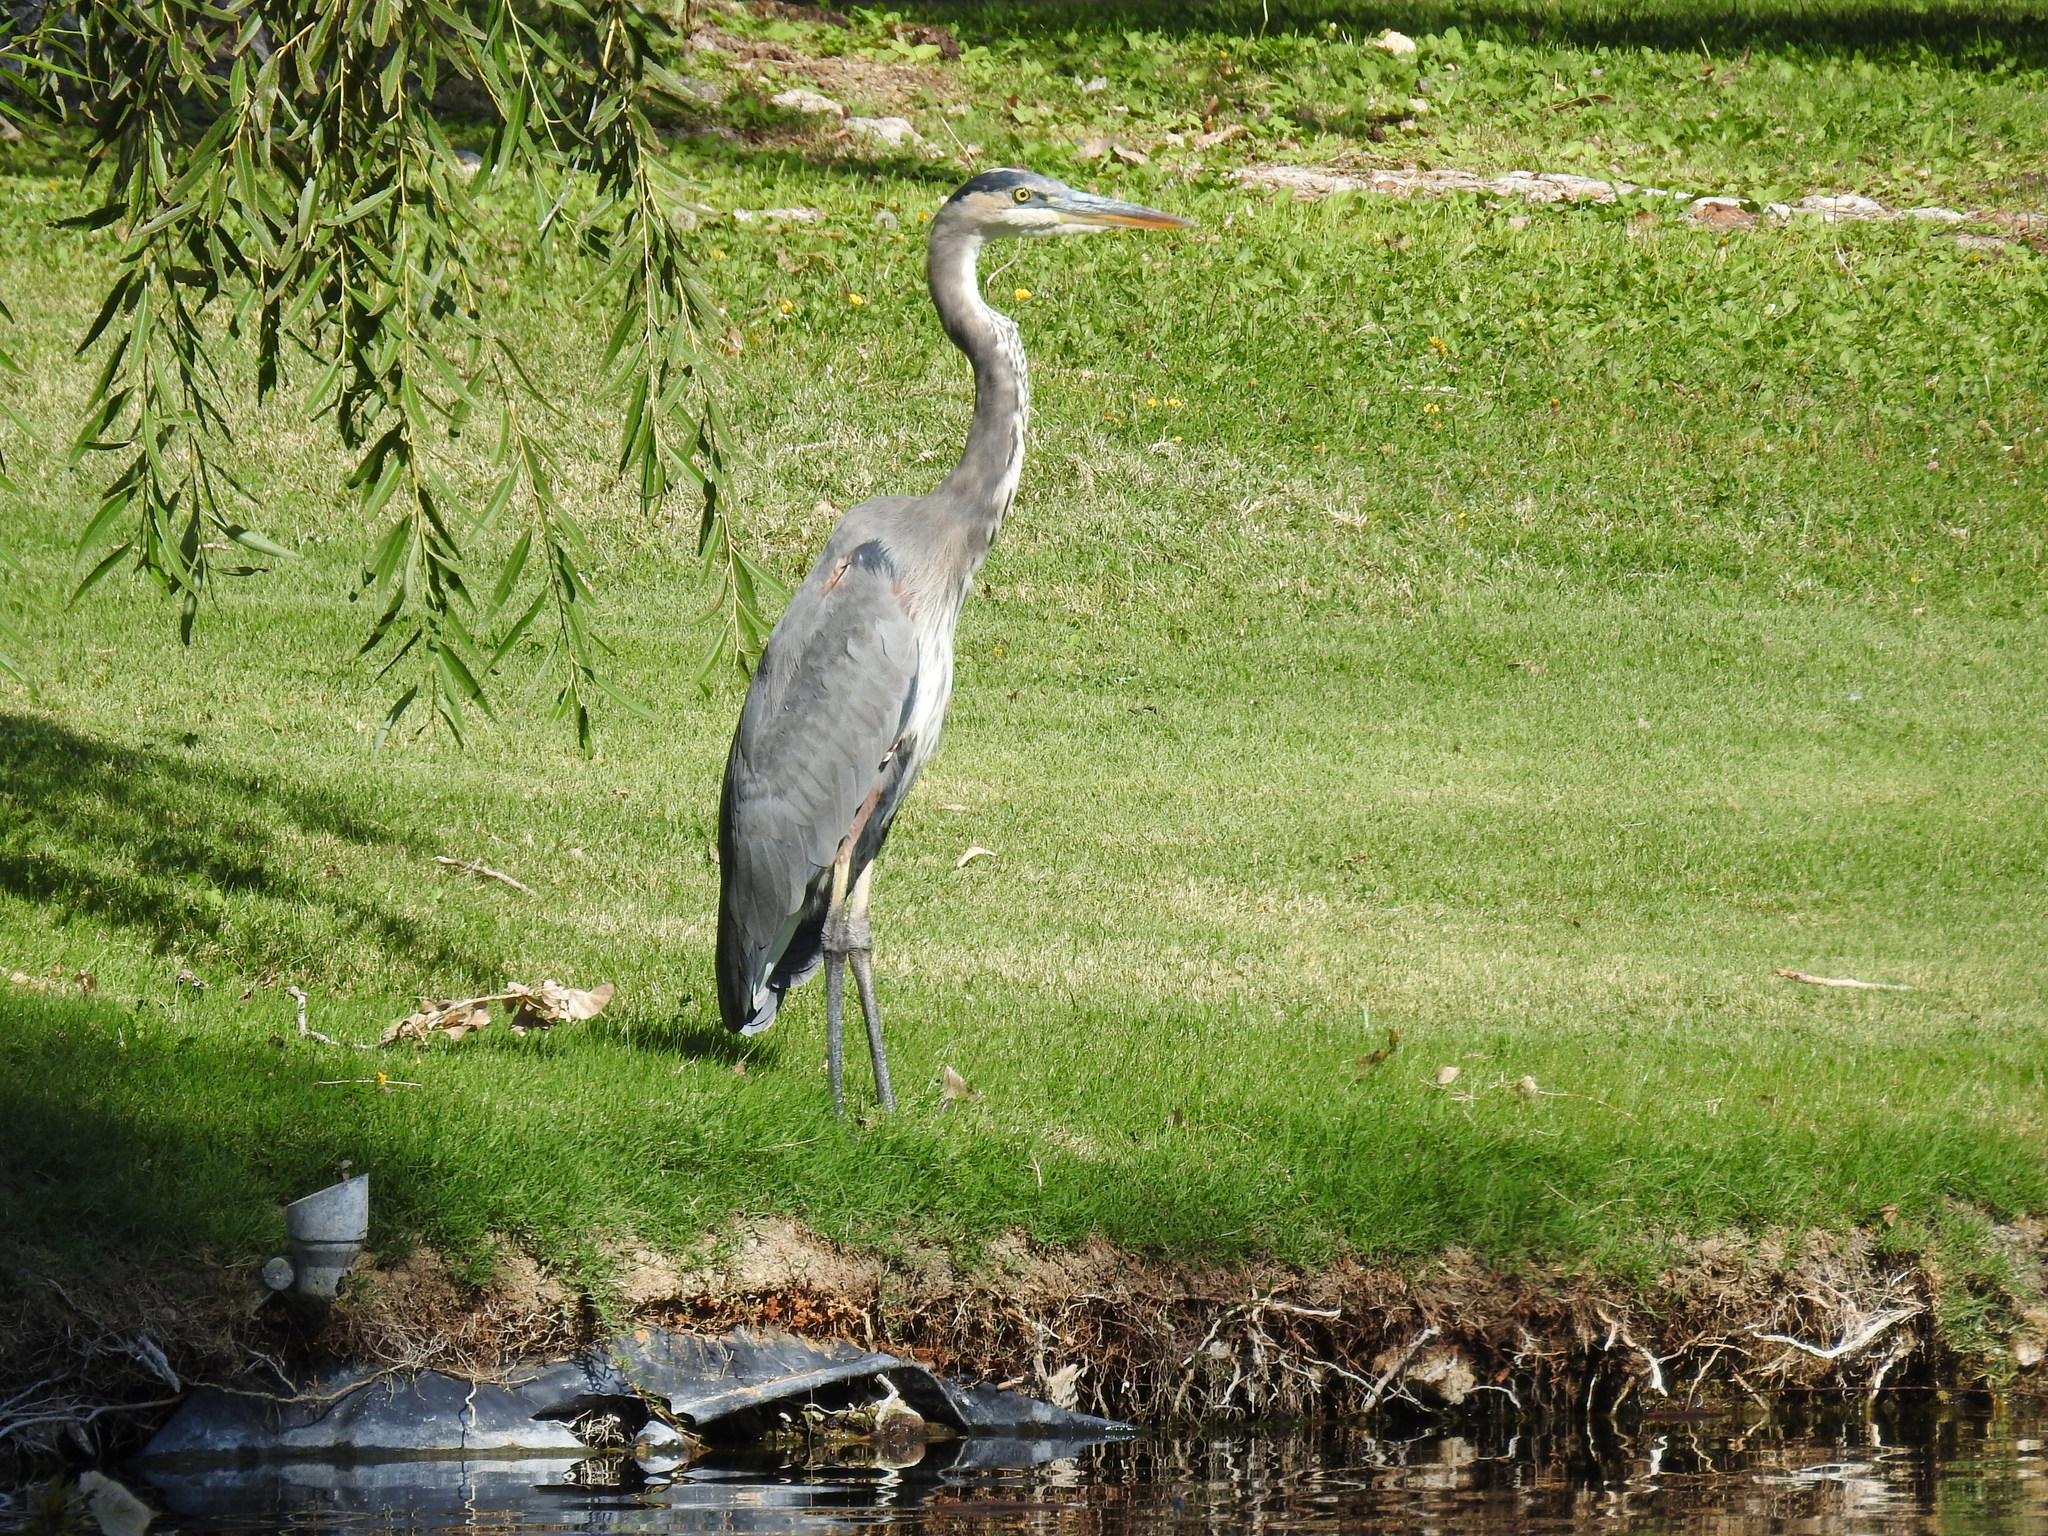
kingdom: Animalia
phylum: Chordata
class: Aves
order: Pelecaniformes
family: Ardeidae
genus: Ardea
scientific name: Ardea herodias
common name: Great blue heron
